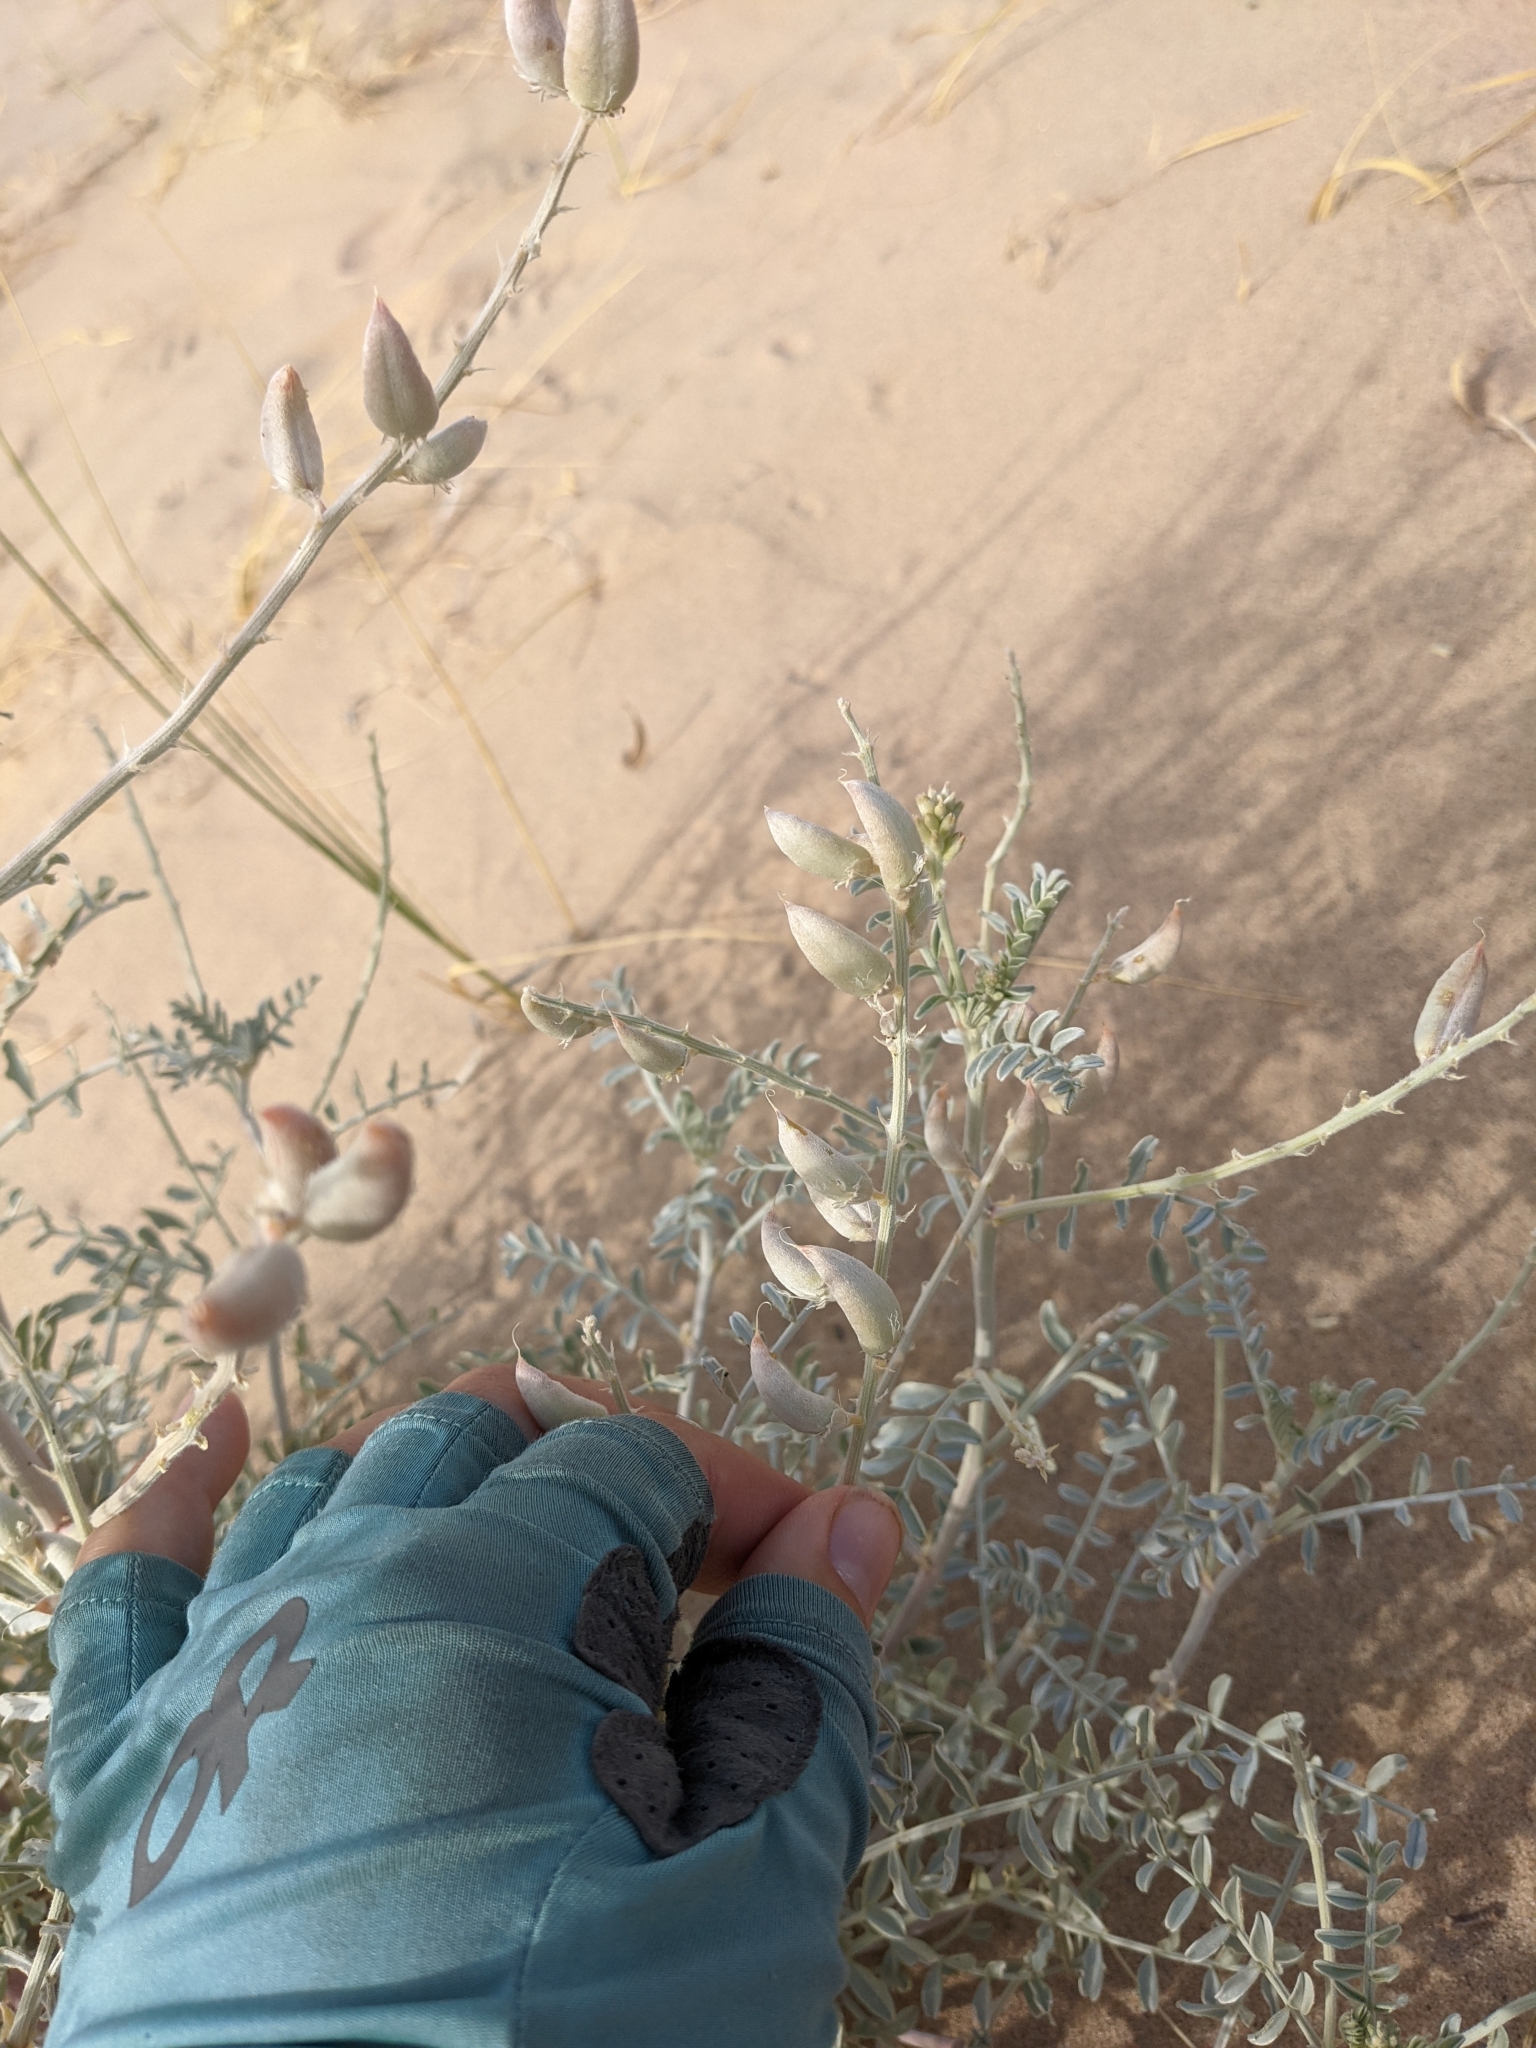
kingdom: Plantae
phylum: Tracheophyta
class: Magnoliopsida
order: Fabales
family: Fabaceae
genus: Astragalus
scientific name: Astragalus lentiginosus
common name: Freckled milkvetch
